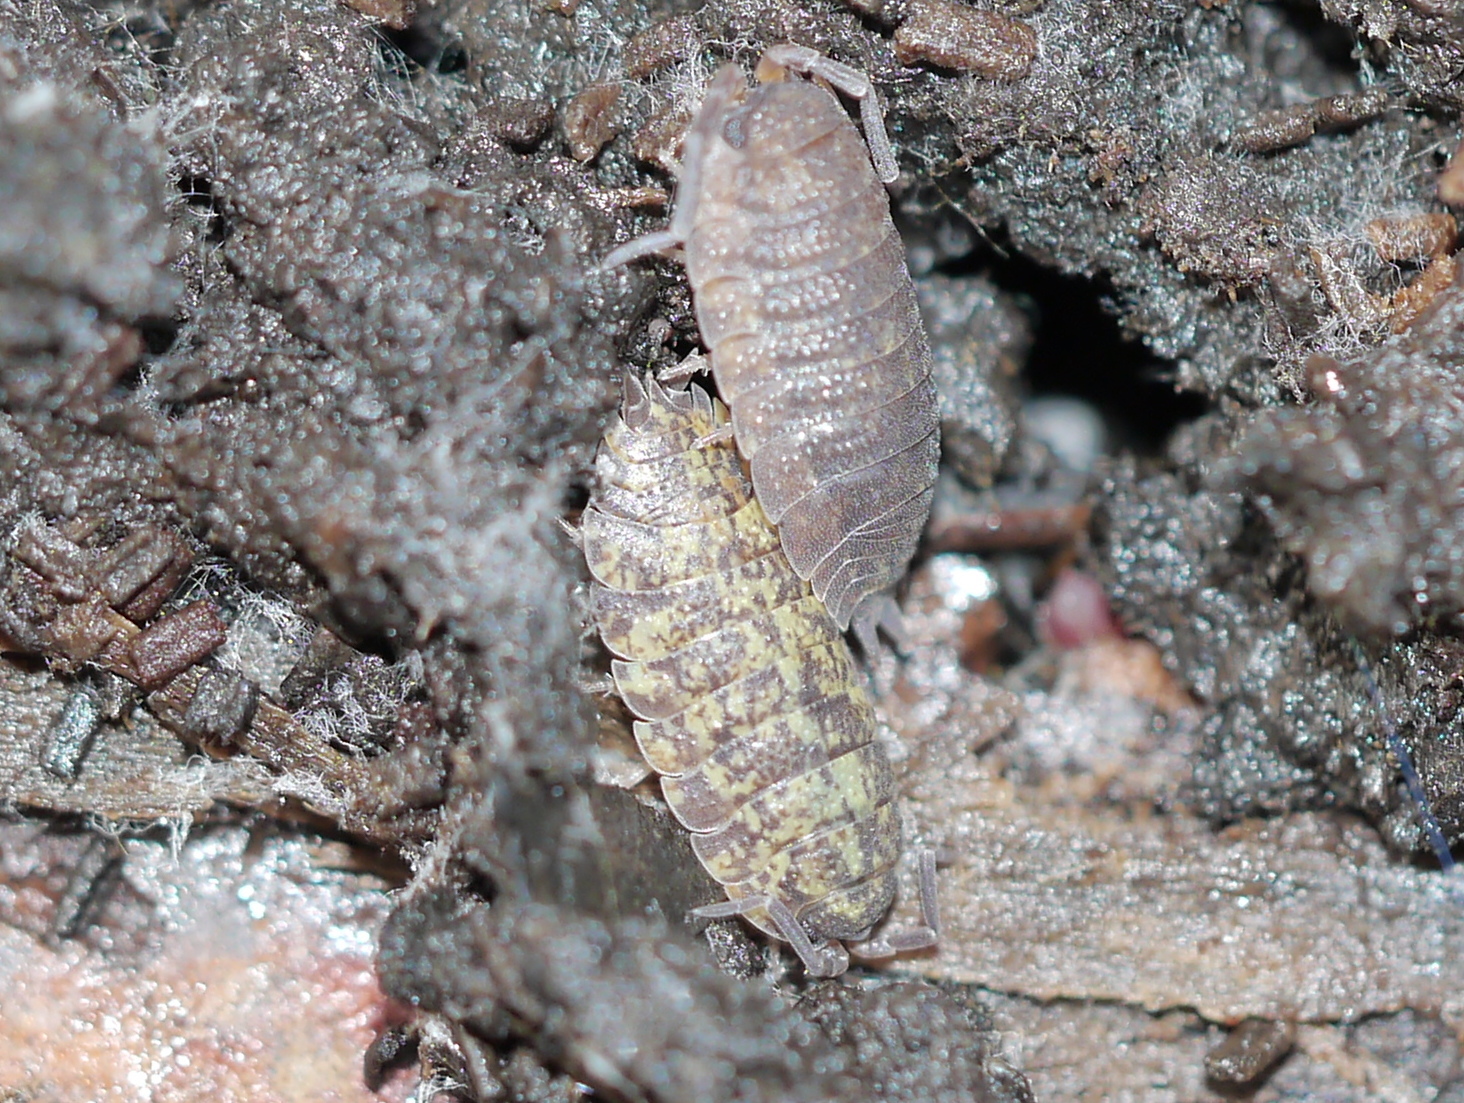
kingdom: Animalia
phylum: Arthropoda
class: Malacostraca
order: Isopoda
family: Porcellionidae
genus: Porcellio
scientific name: Porcellio scaber
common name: Common rough woodlouse
